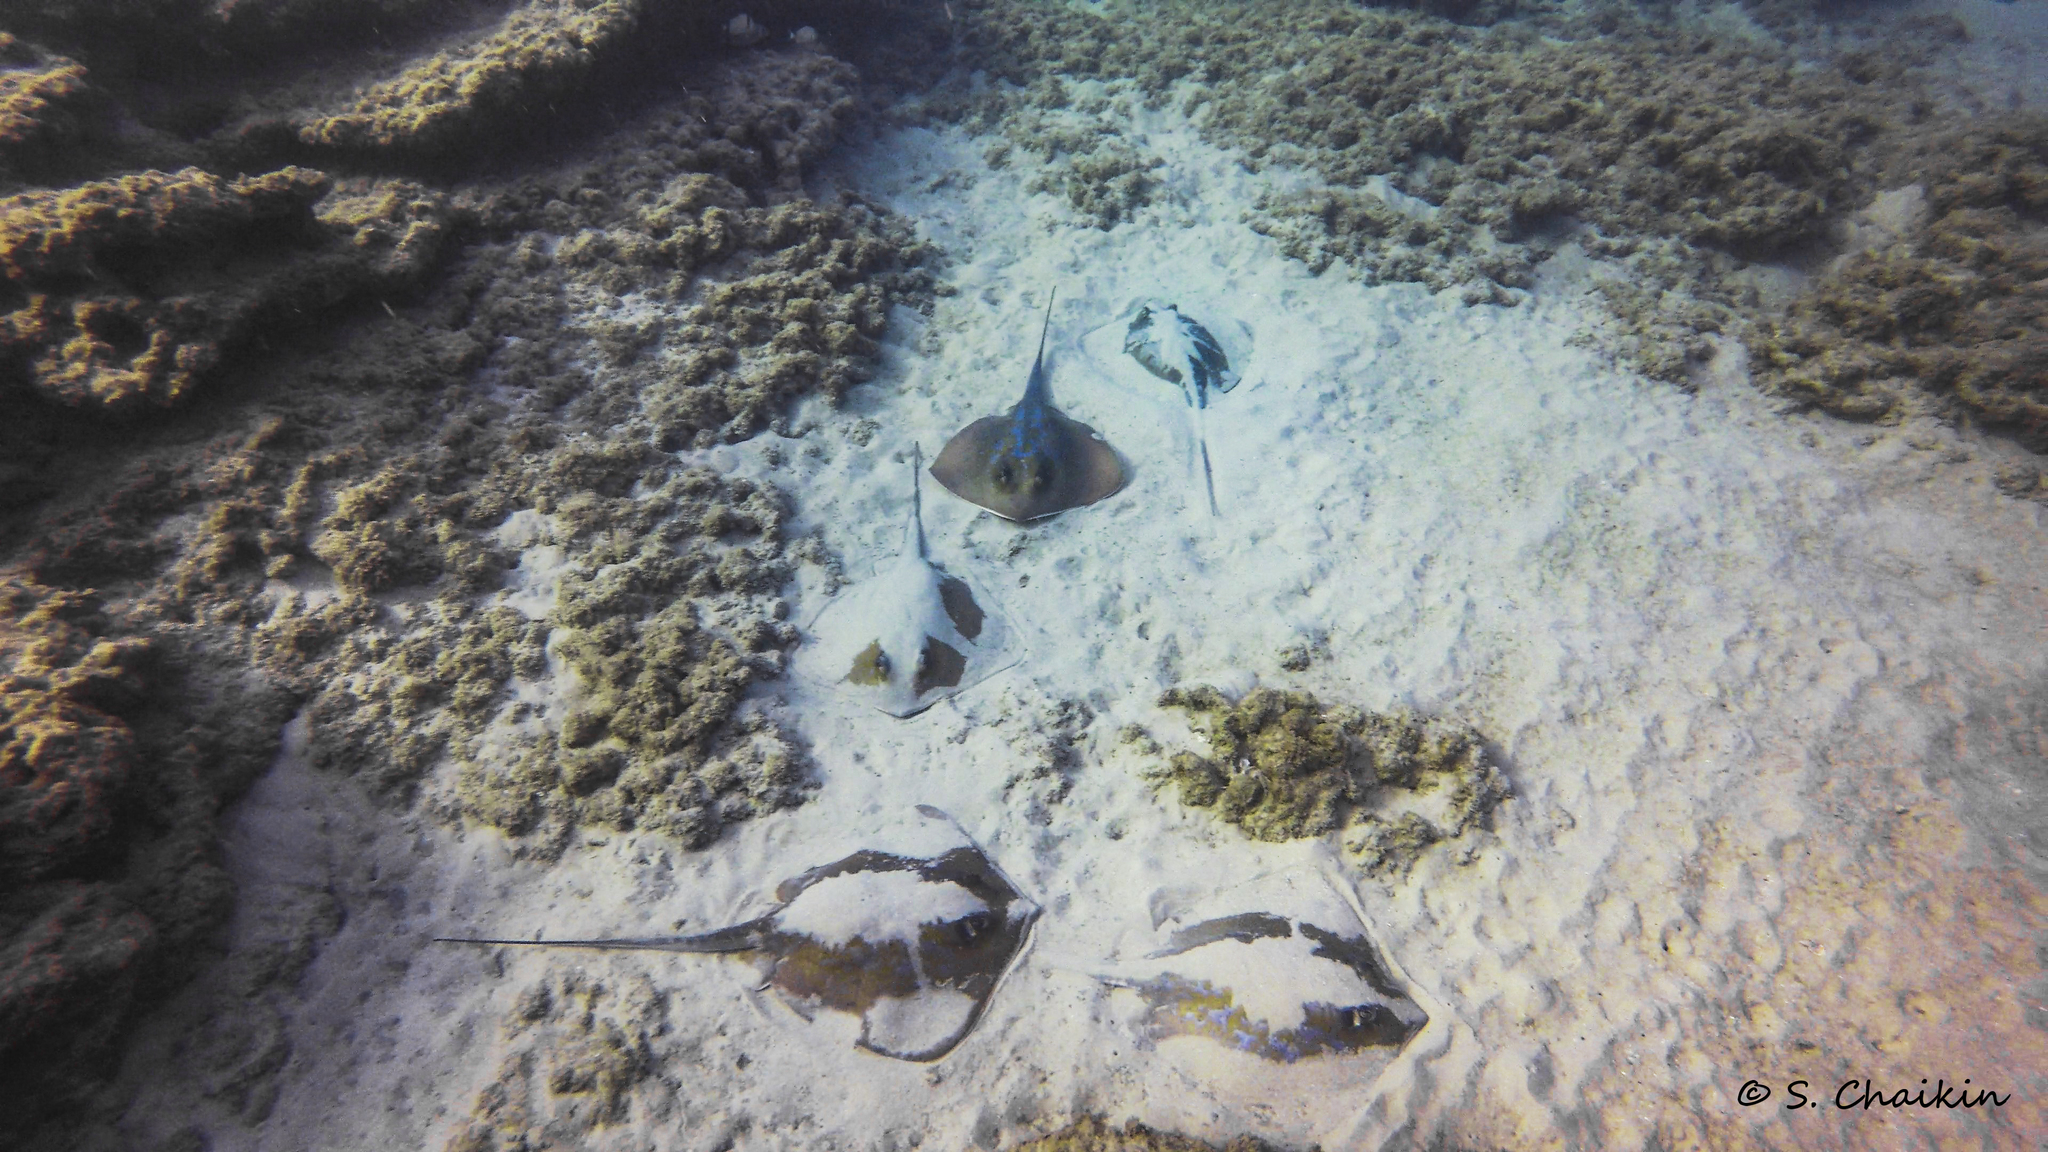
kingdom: Animalia
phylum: Chordata
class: Elasmobranchii
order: Myliobatiformes
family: Dasyatidae
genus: Dasyatis
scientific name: Dasyatis marmorata
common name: Marbled stingray
